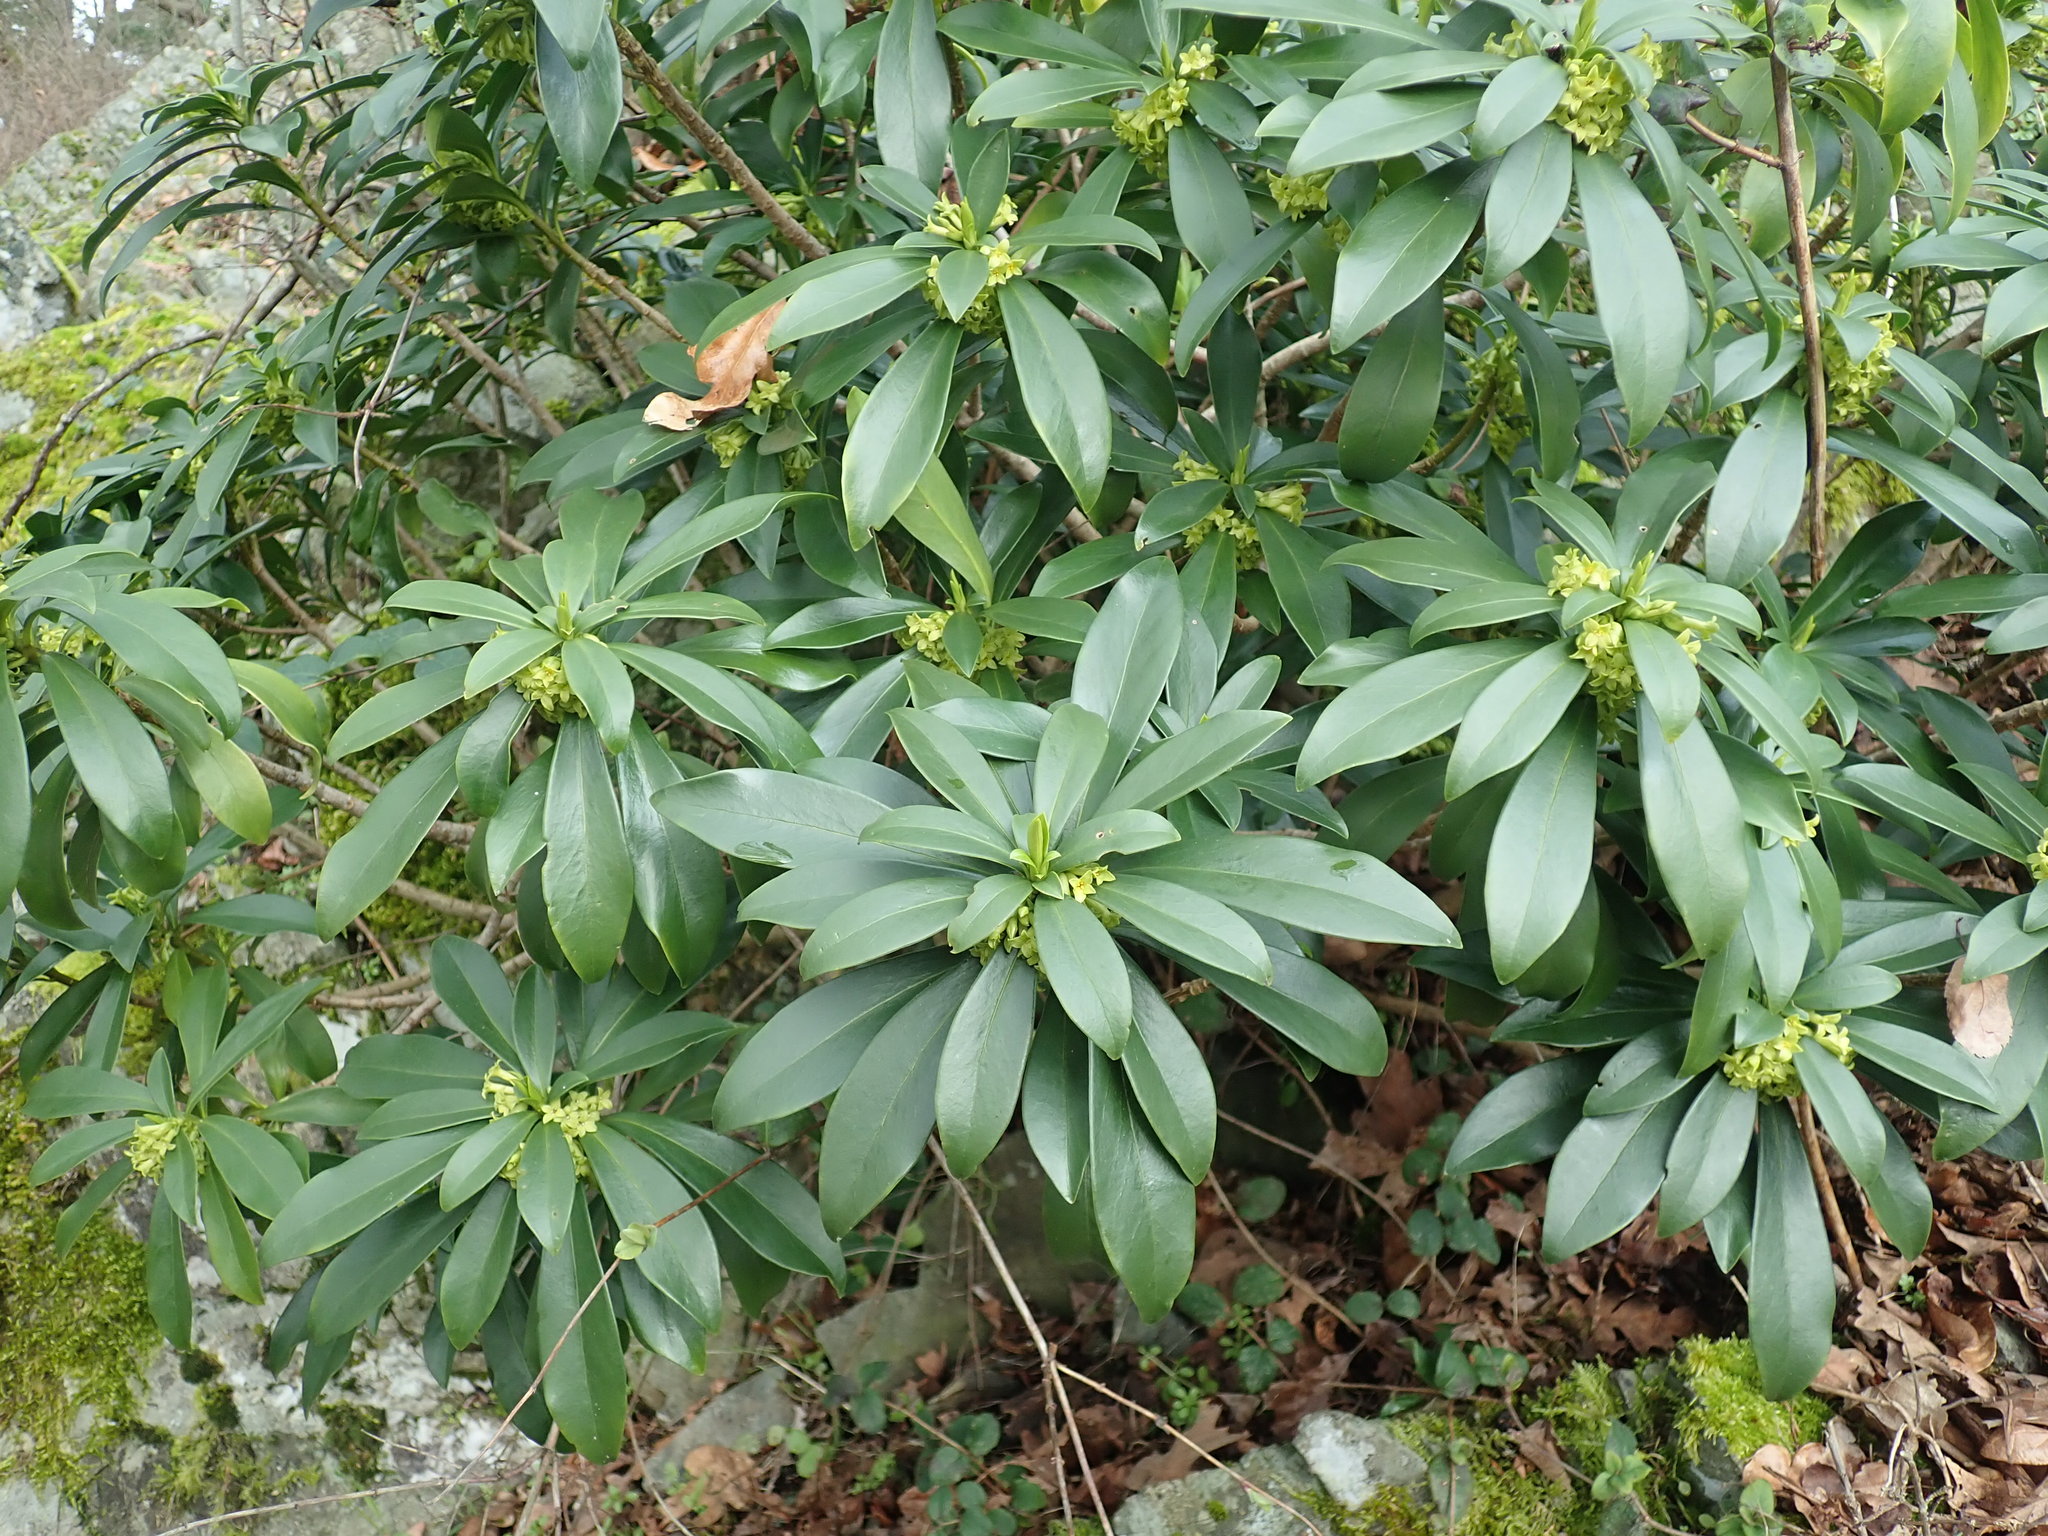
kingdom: Plantae
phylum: Tracheophyta
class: Magnoliopsida
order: Malvales
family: Thymelaeaceae
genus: Daphne
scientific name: Daphne laureola
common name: Spurge-laurel
